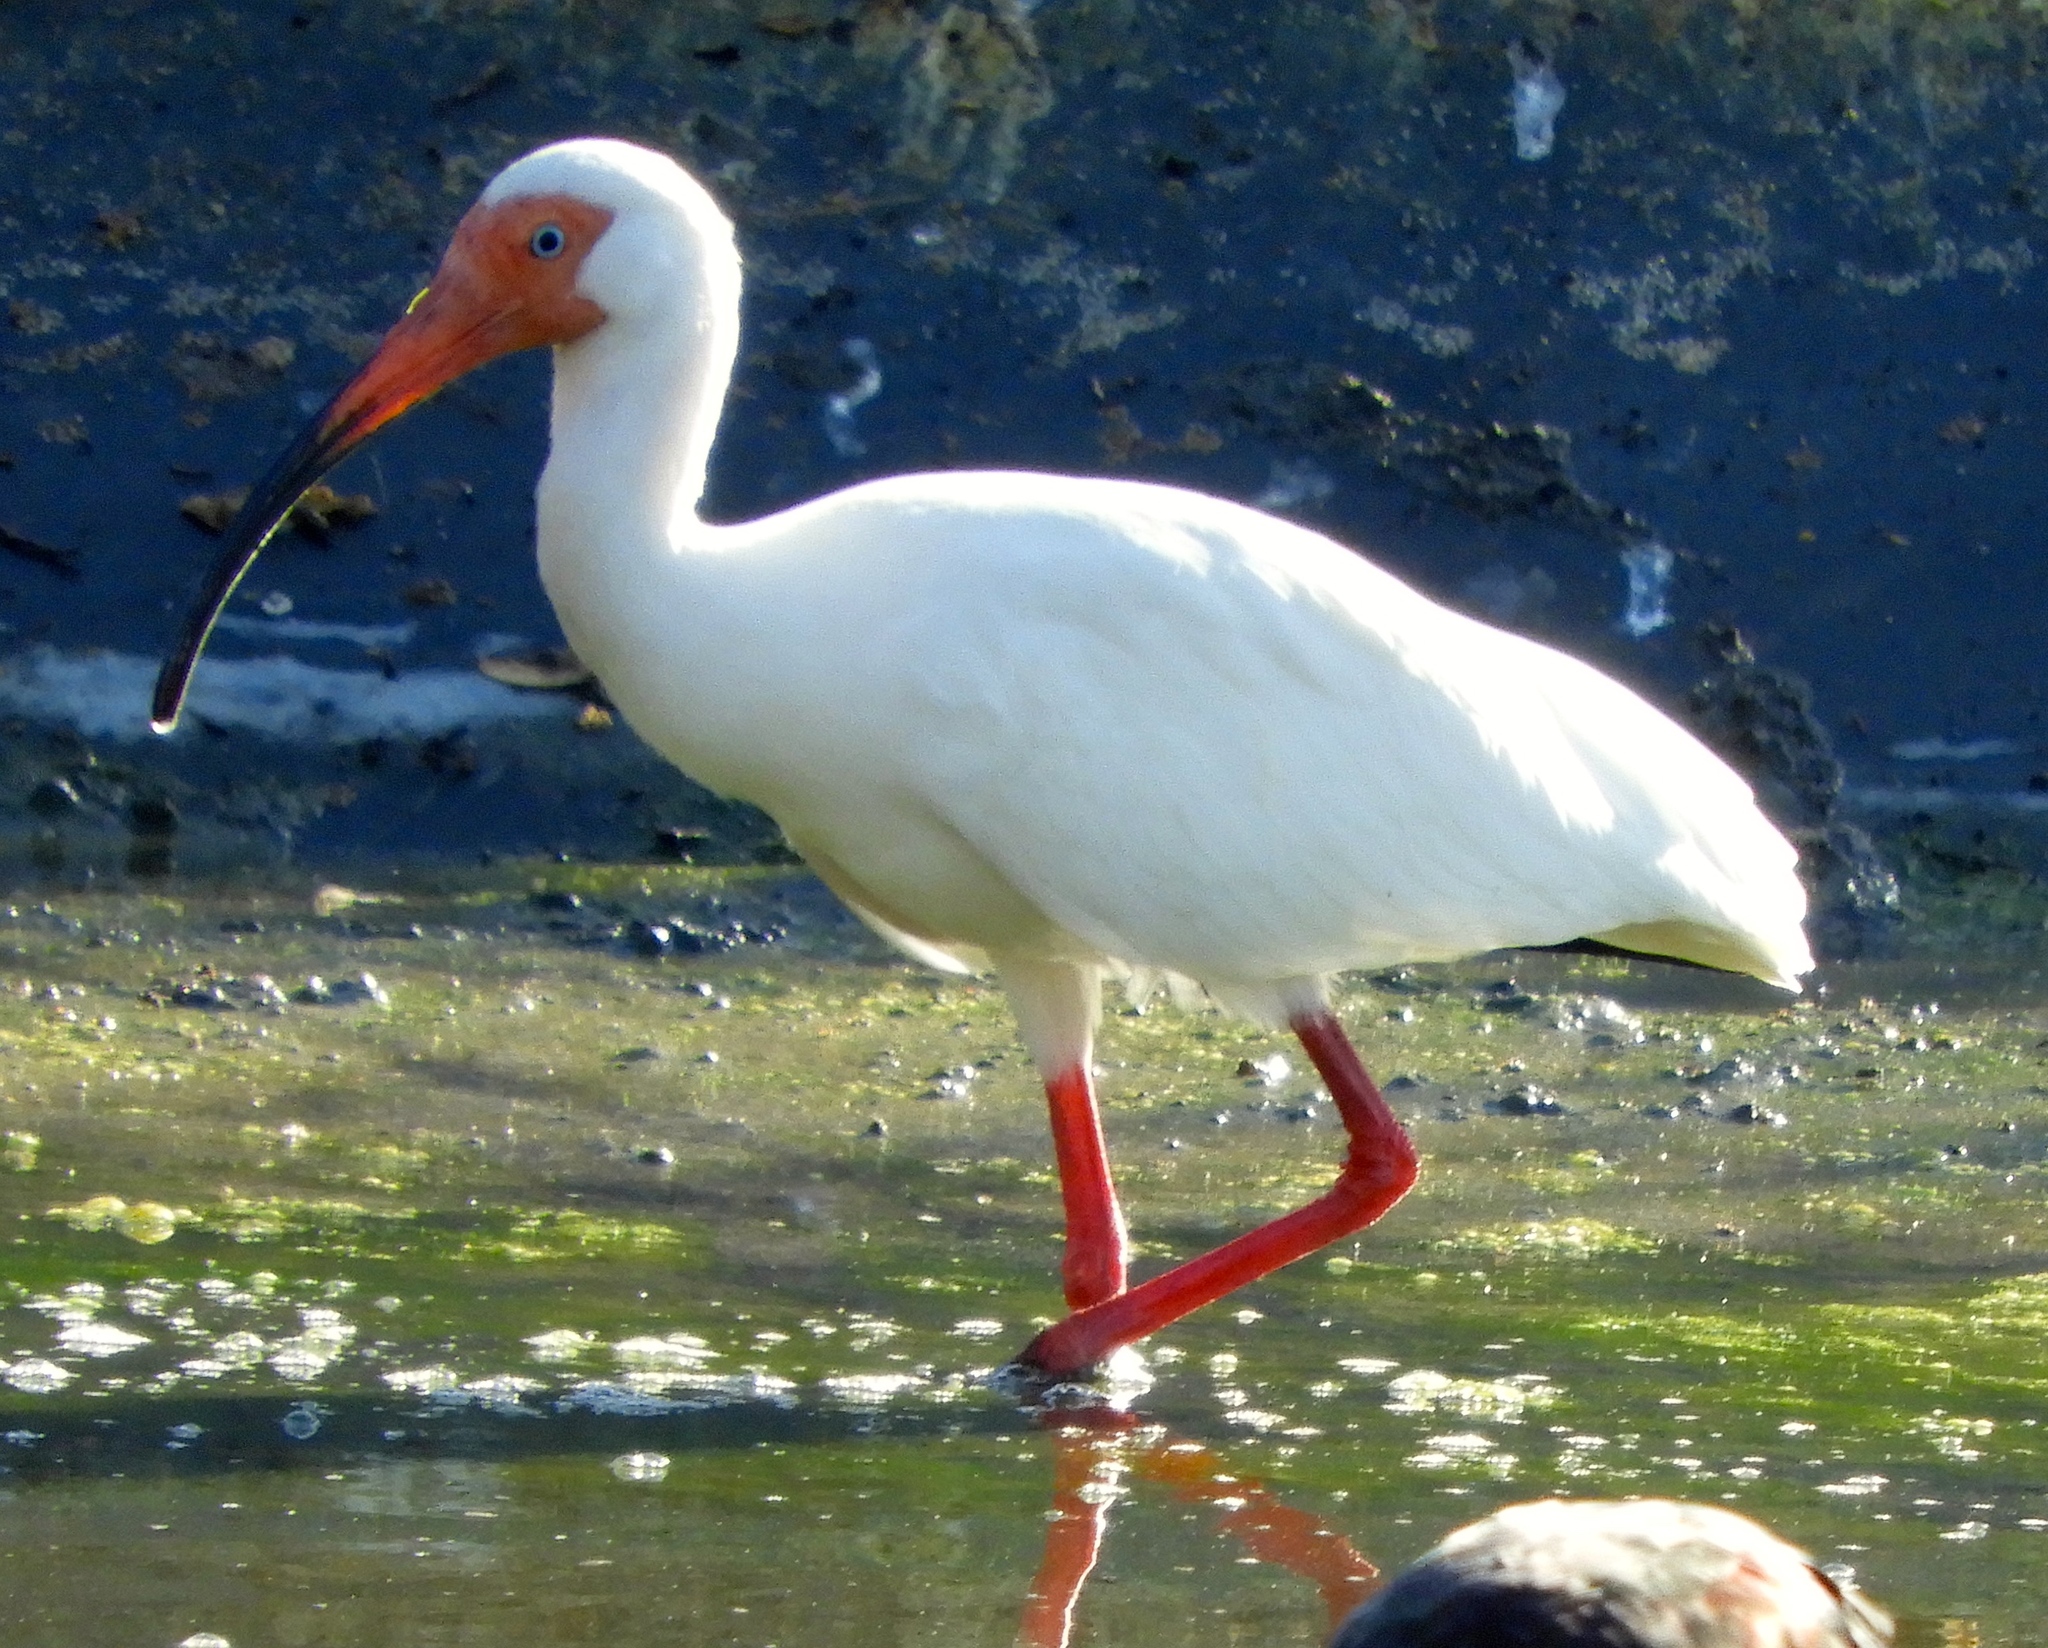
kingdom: Animalia
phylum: Chordata
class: Aves
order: Pelecaniformes
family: Threskiornithidae
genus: Eudocimus
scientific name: Eudocimus albus
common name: White ibis
